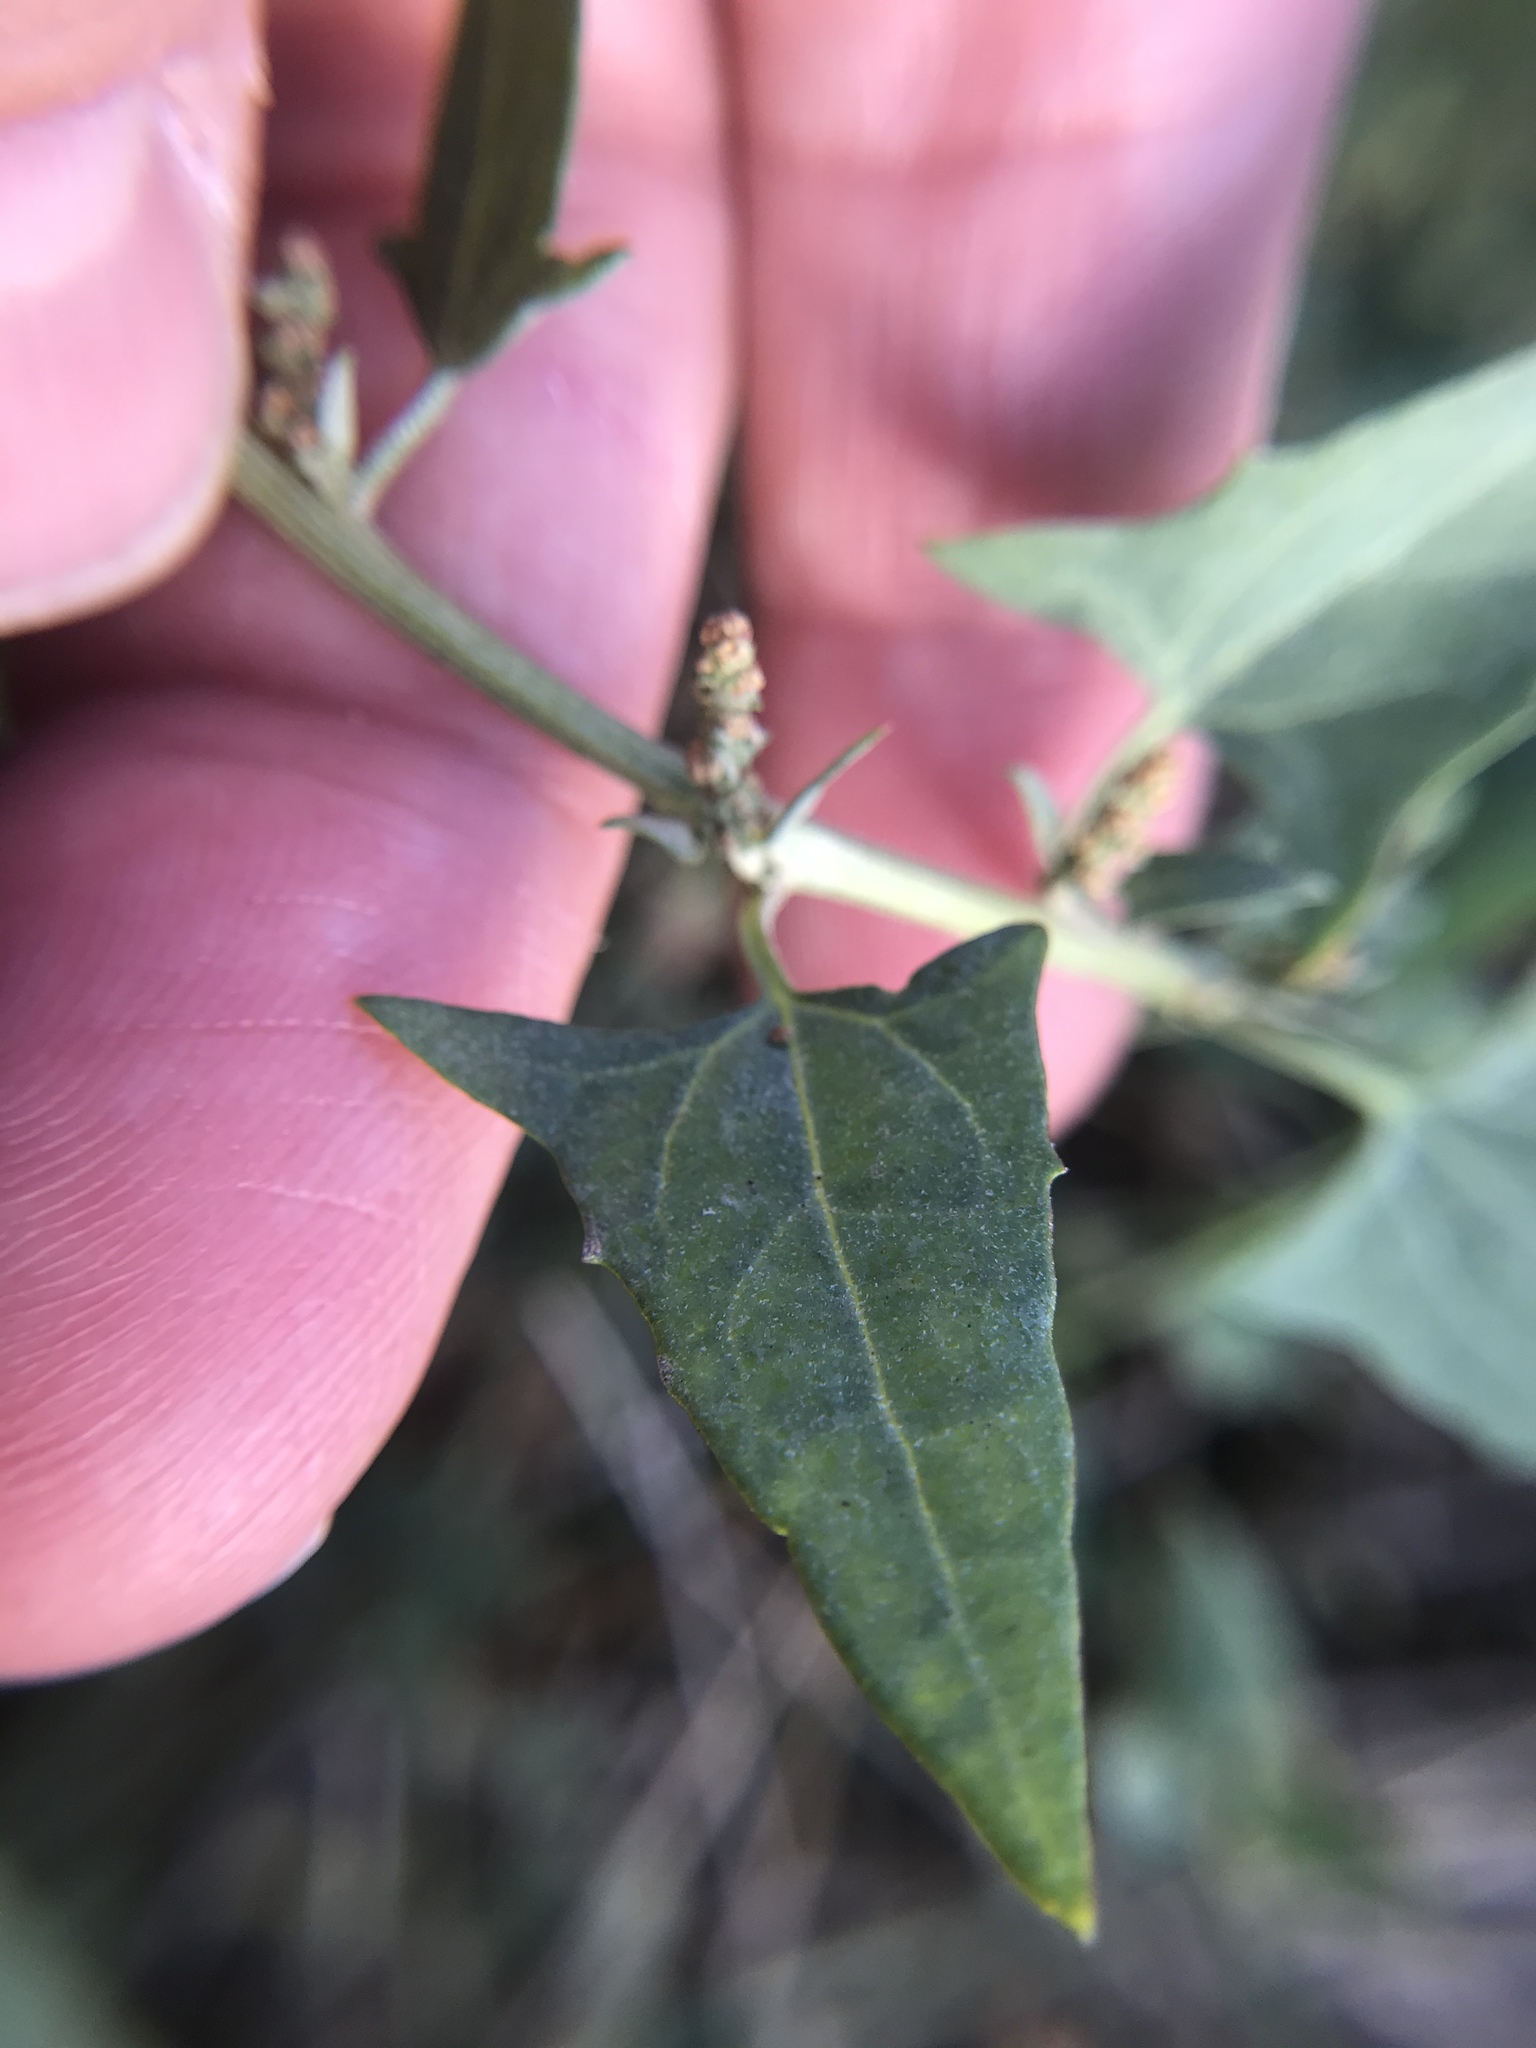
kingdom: Plantae
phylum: Tracheophyta
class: Magnoliopsida
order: Caryophyllales
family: Amaranthaceae
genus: Atriplex
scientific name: Atriplex prostrata
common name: Spear-leaved orache
